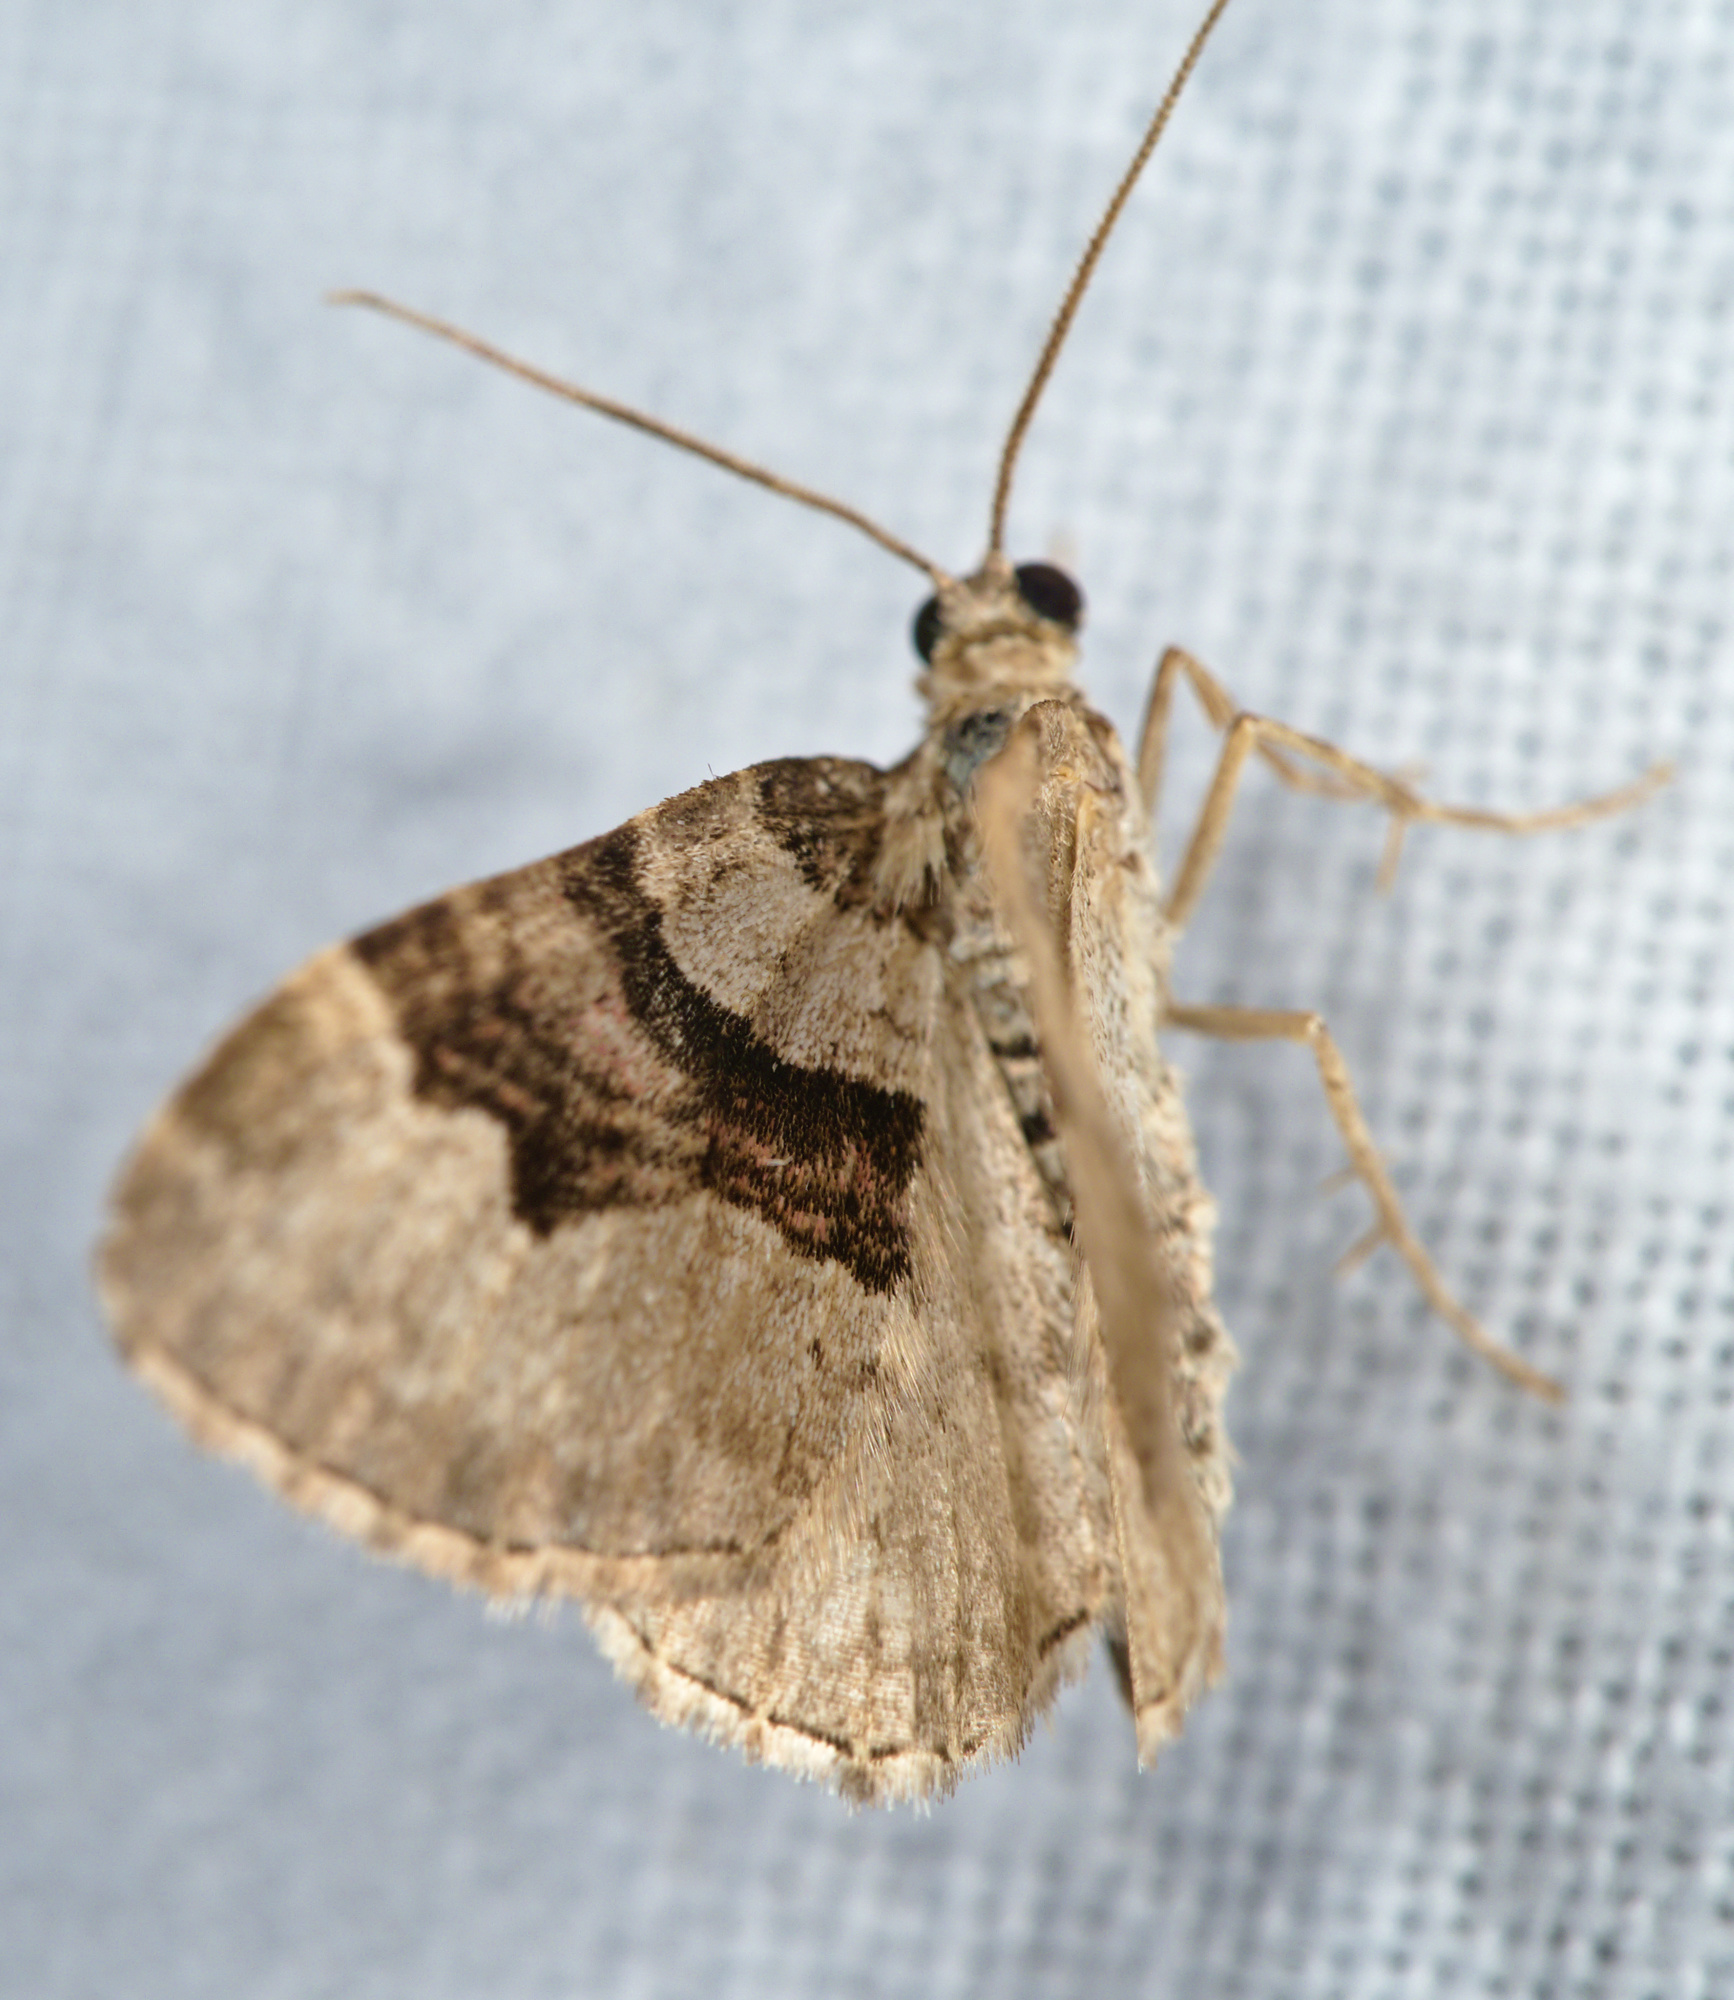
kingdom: Animalia
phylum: Arthropoda
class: Insecta
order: Lepidoptera
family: Geometridae
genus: Xanthorhoe
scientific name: Xanthorhoe designata
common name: Flame carpet
